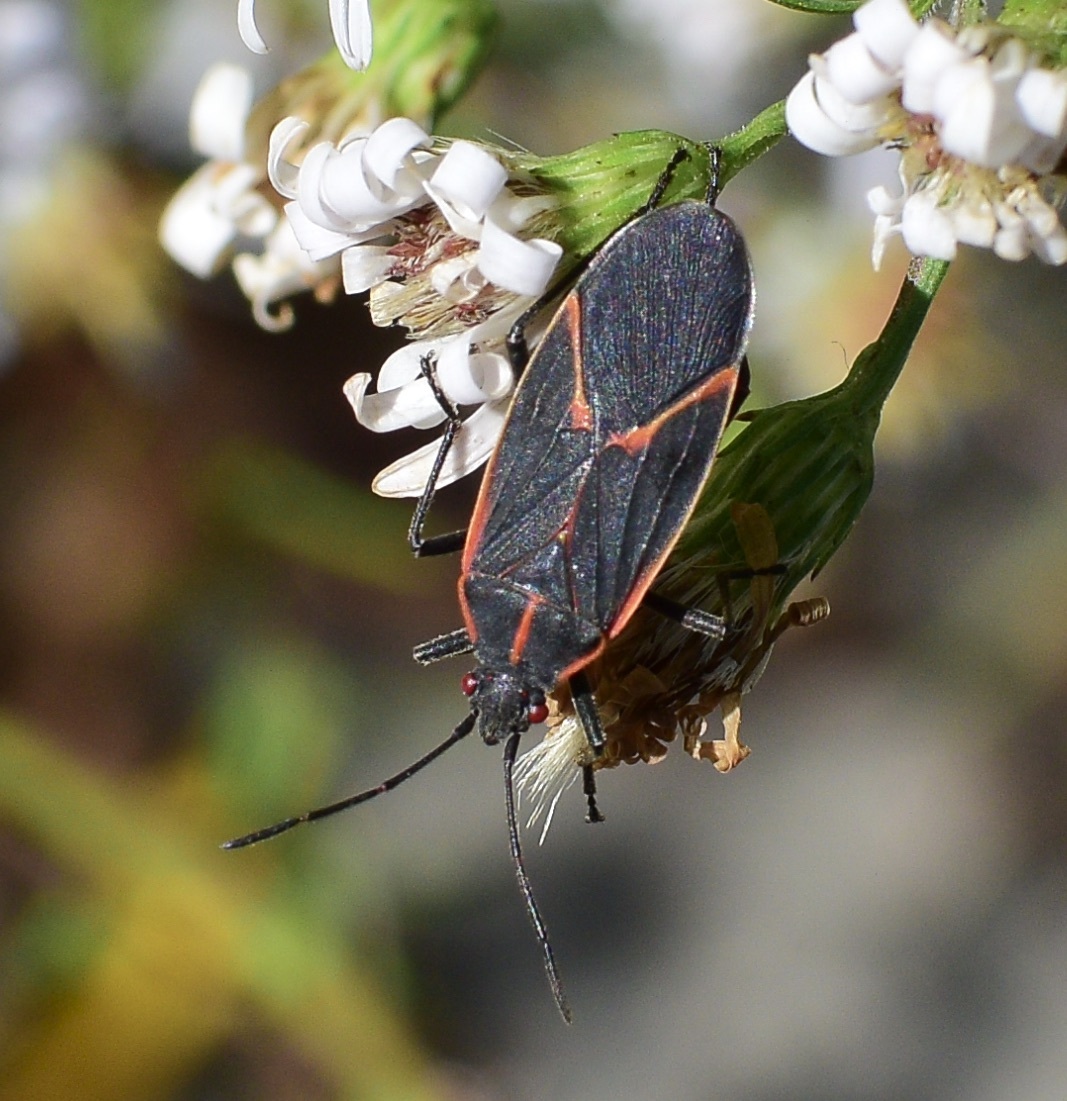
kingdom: Animalia
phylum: Arthropoda
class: Insecta
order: Hemiptera
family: Rhopalidae
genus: Boisea
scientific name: Boisea trivittata
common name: Boxelder bug
